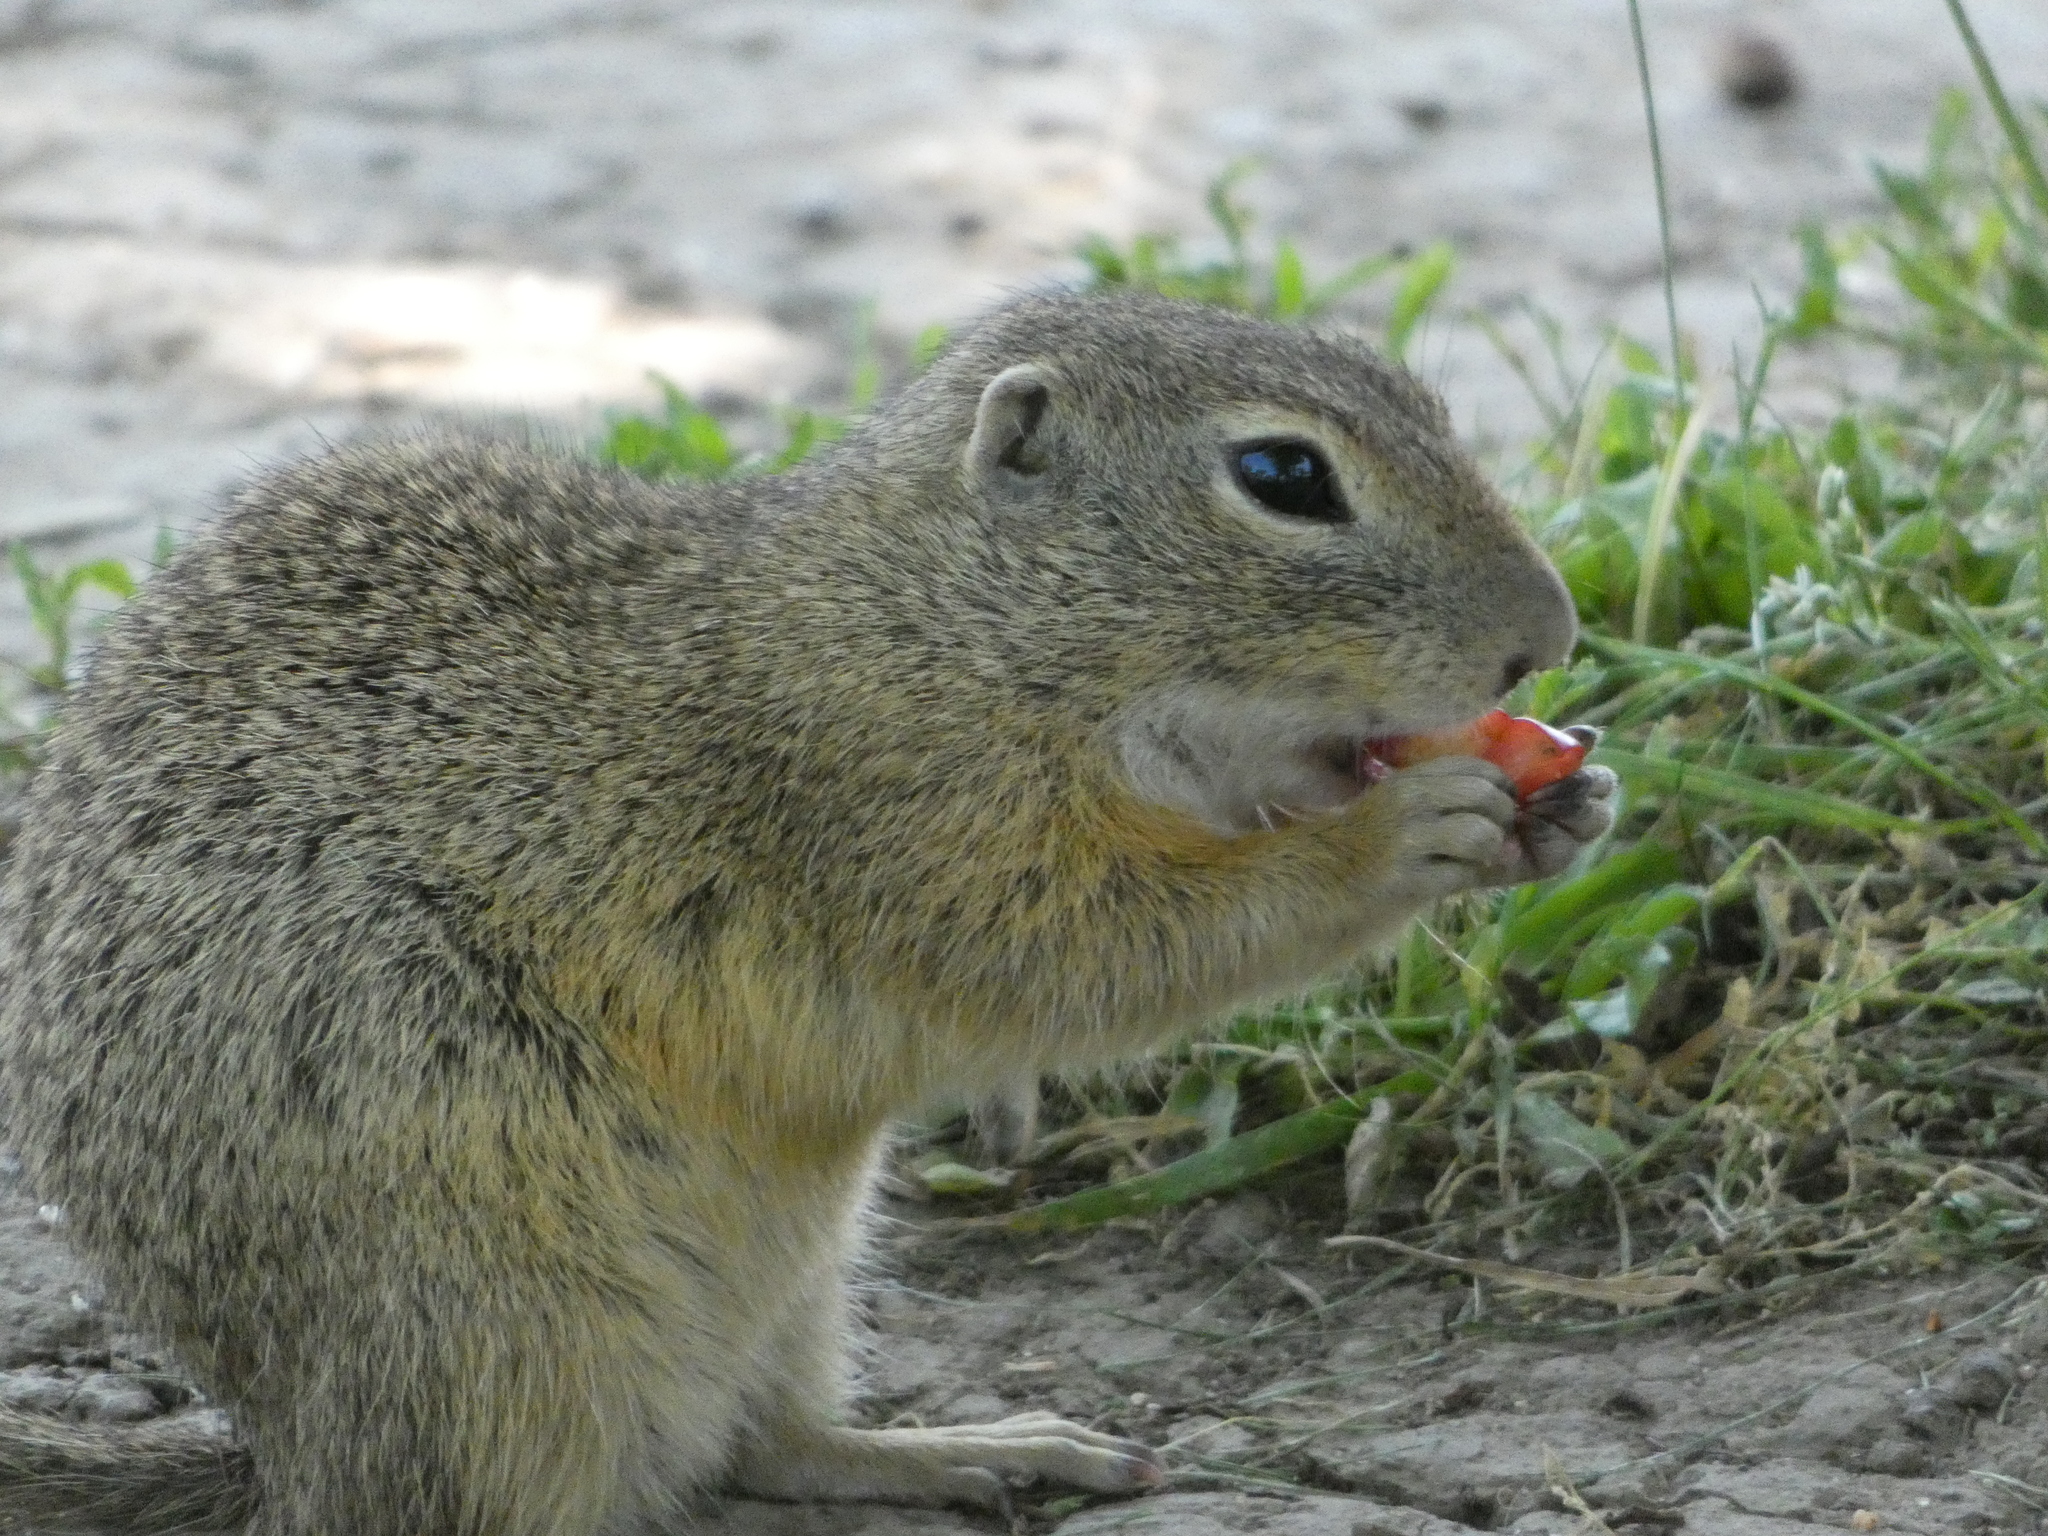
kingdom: Animalia
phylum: Chordata
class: Mammalia
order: Rodentia
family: Sciuridae
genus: Spermophilus
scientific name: Spermophilus citellus
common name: European ground squirrel
